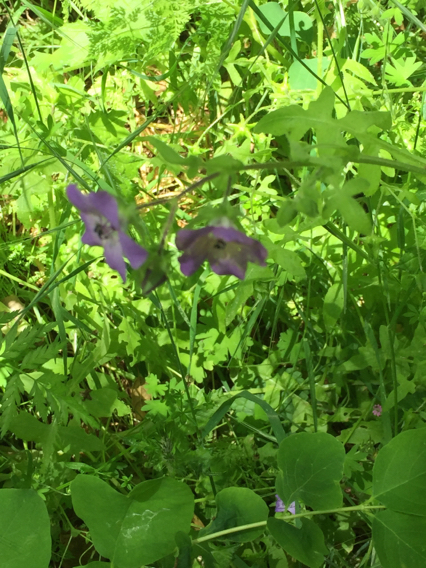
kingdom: Plantae
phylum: Tracheophyta
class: Magnoliopsida
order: Boraginales
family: Hydrophyllaceae
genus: Pholistoma
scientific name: Pholistoma auritum
